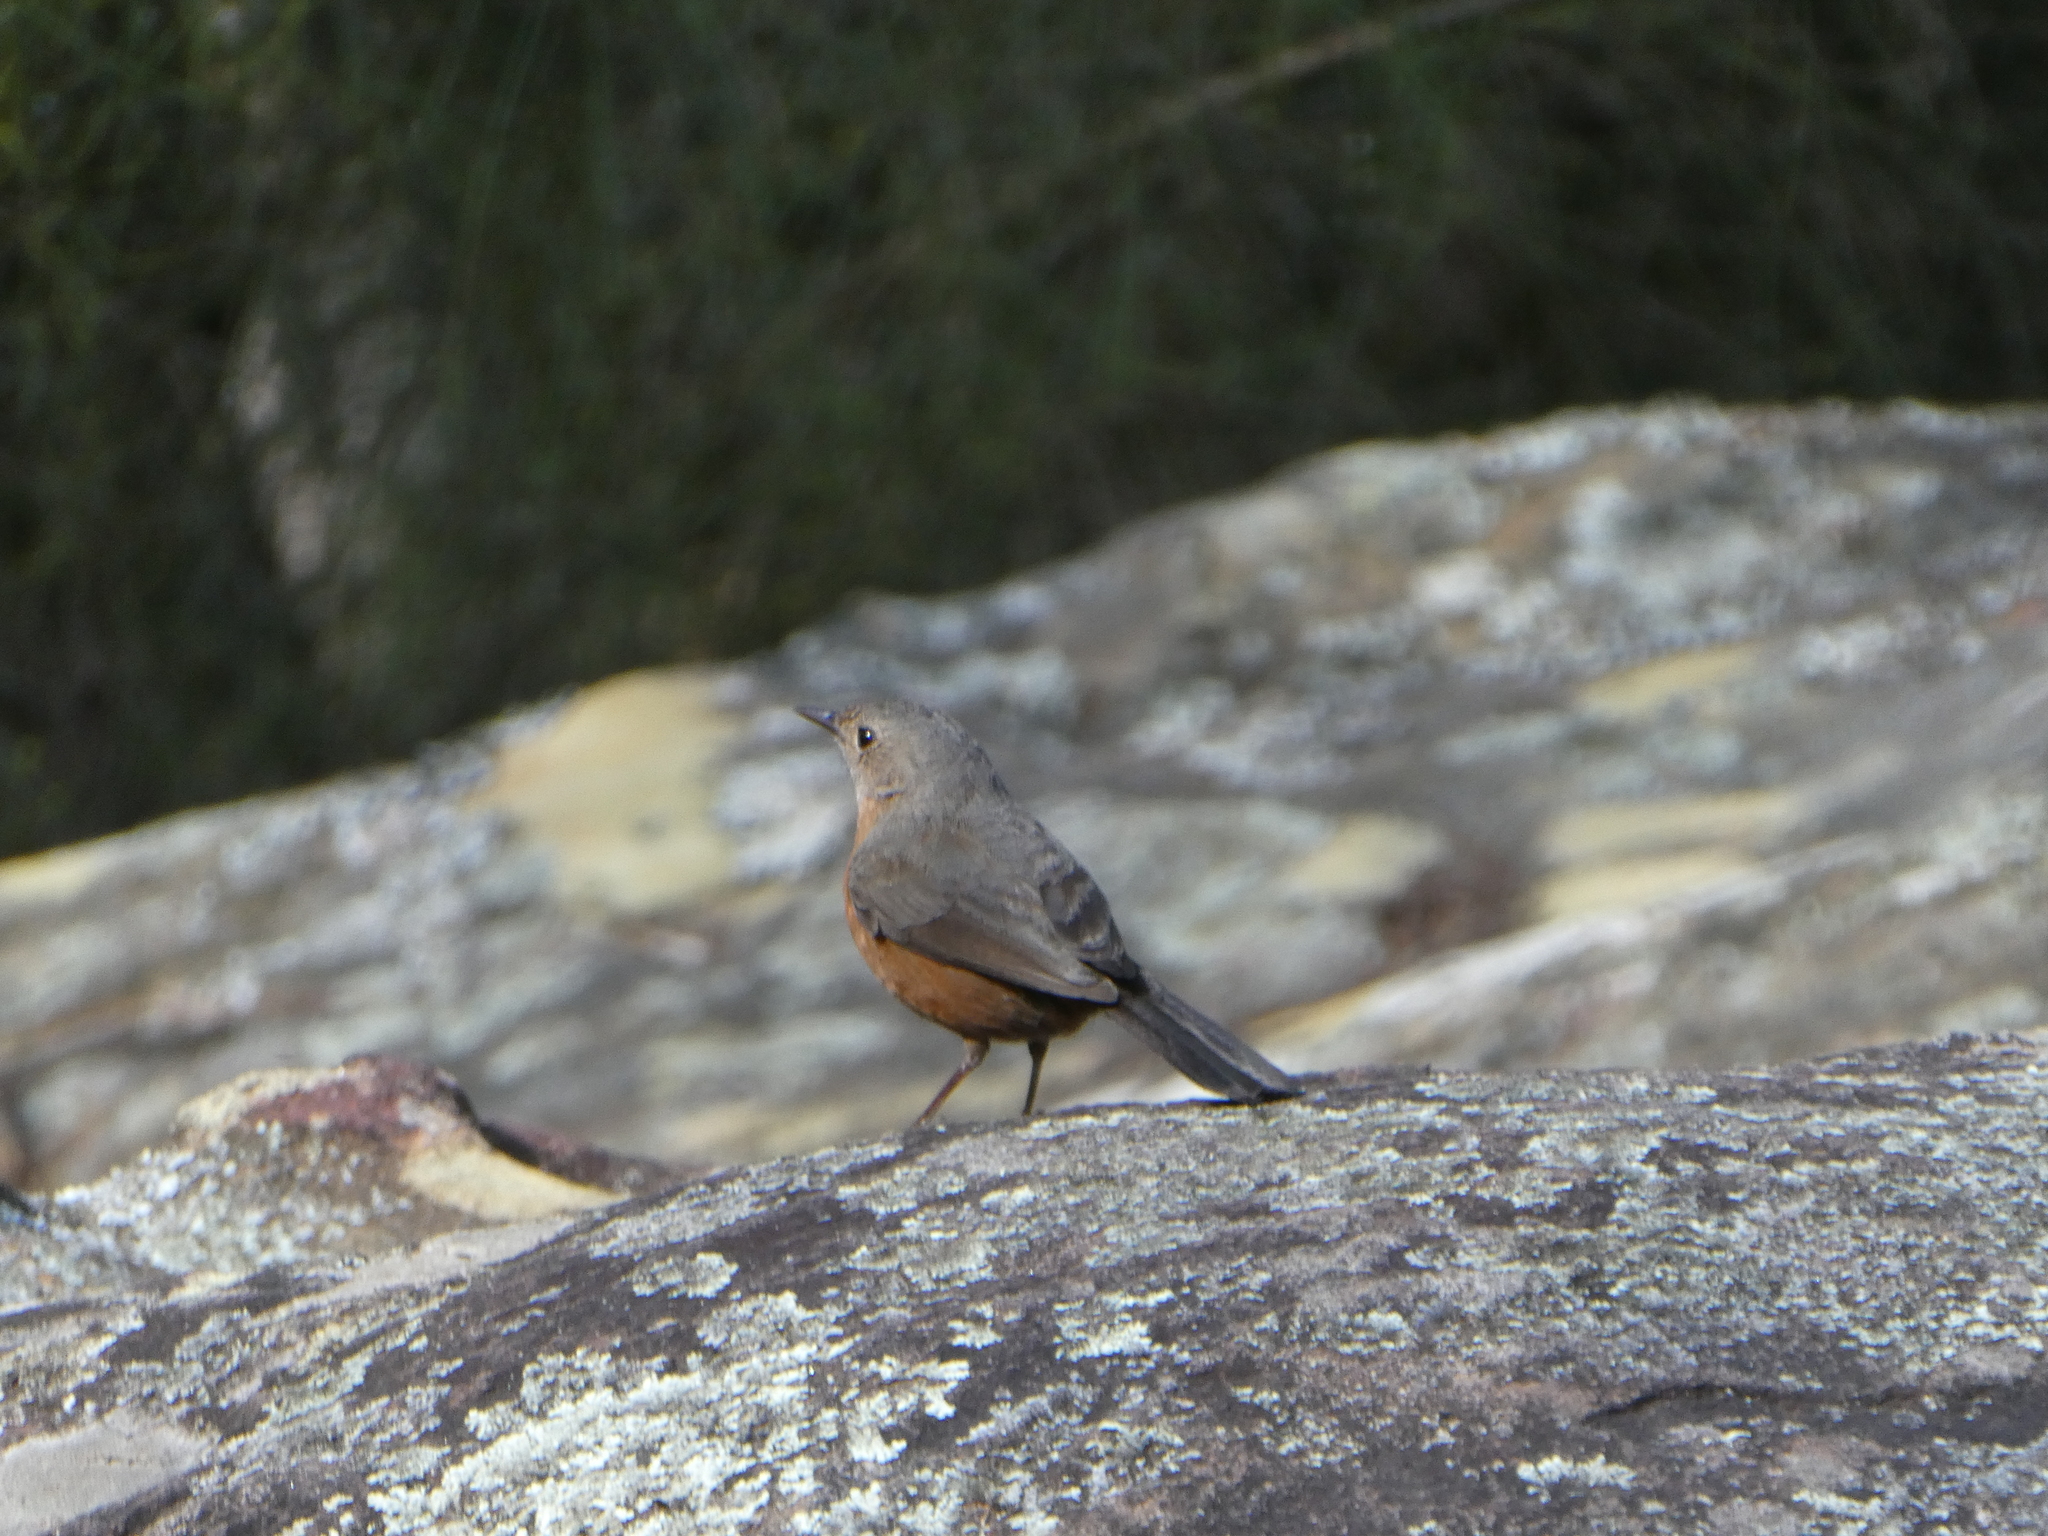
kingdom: Animalia
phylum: Chordata
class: Aves
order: Passeriformes
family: Acanthizidae
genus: Origma
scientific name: Origma solitaria
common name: Rockwarbler
